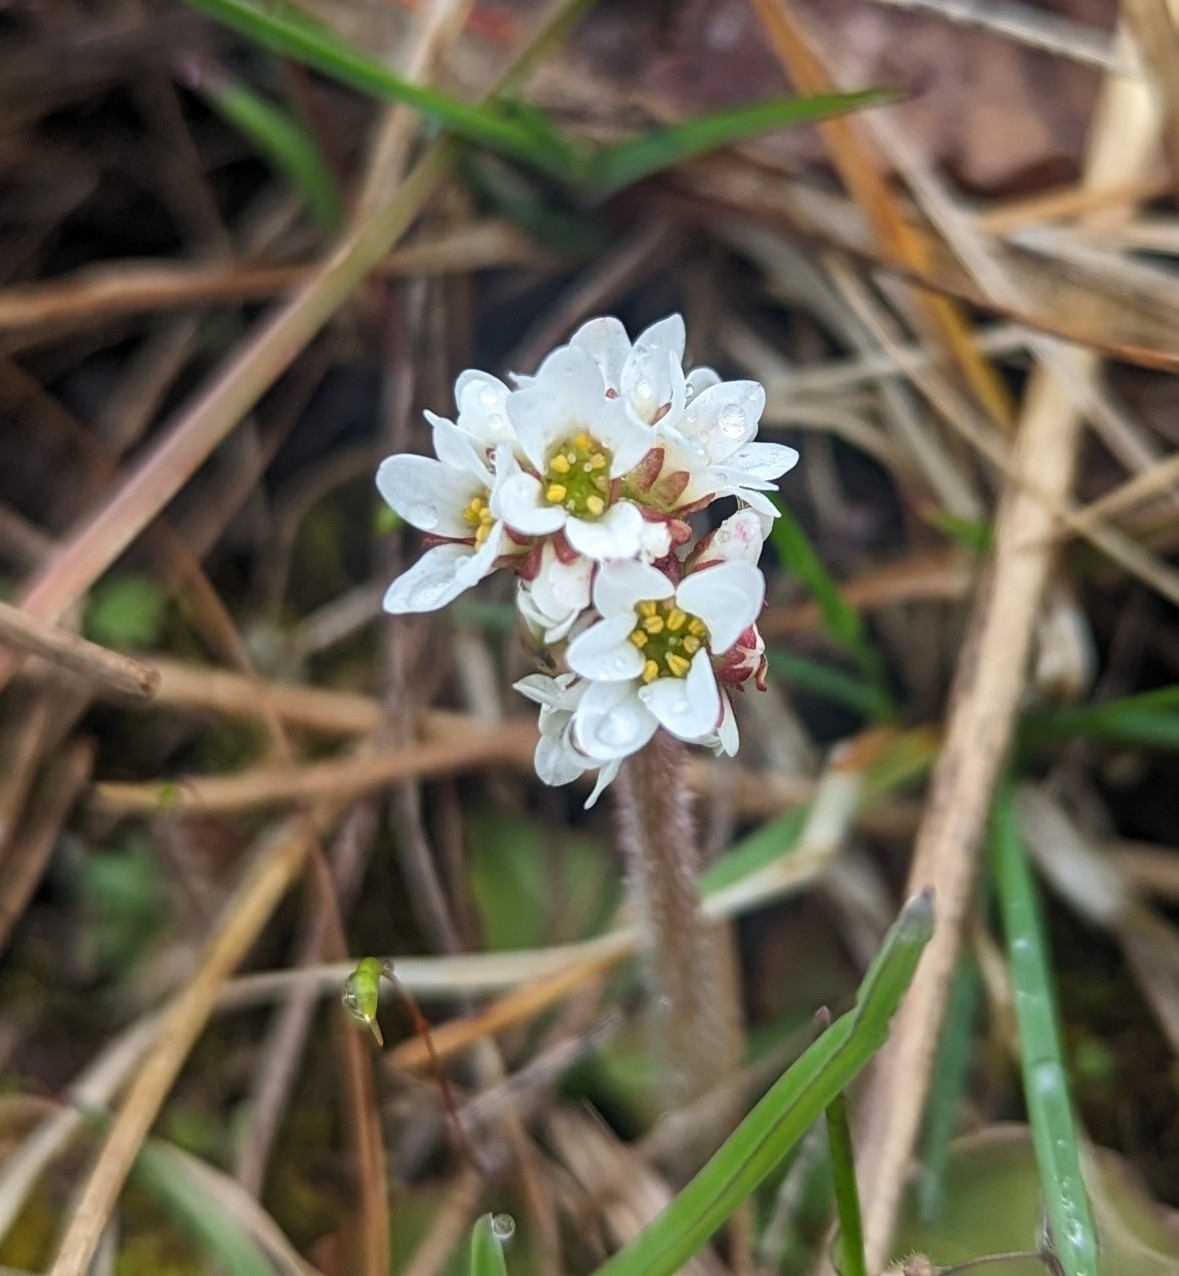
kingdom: Plantae
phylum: Tracheophyta
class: Magnoliopsida
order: Saxifragales
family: Saxifragaceae
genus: Micranthes
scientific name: Micranthes virginiensis
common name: Early saxifrage
